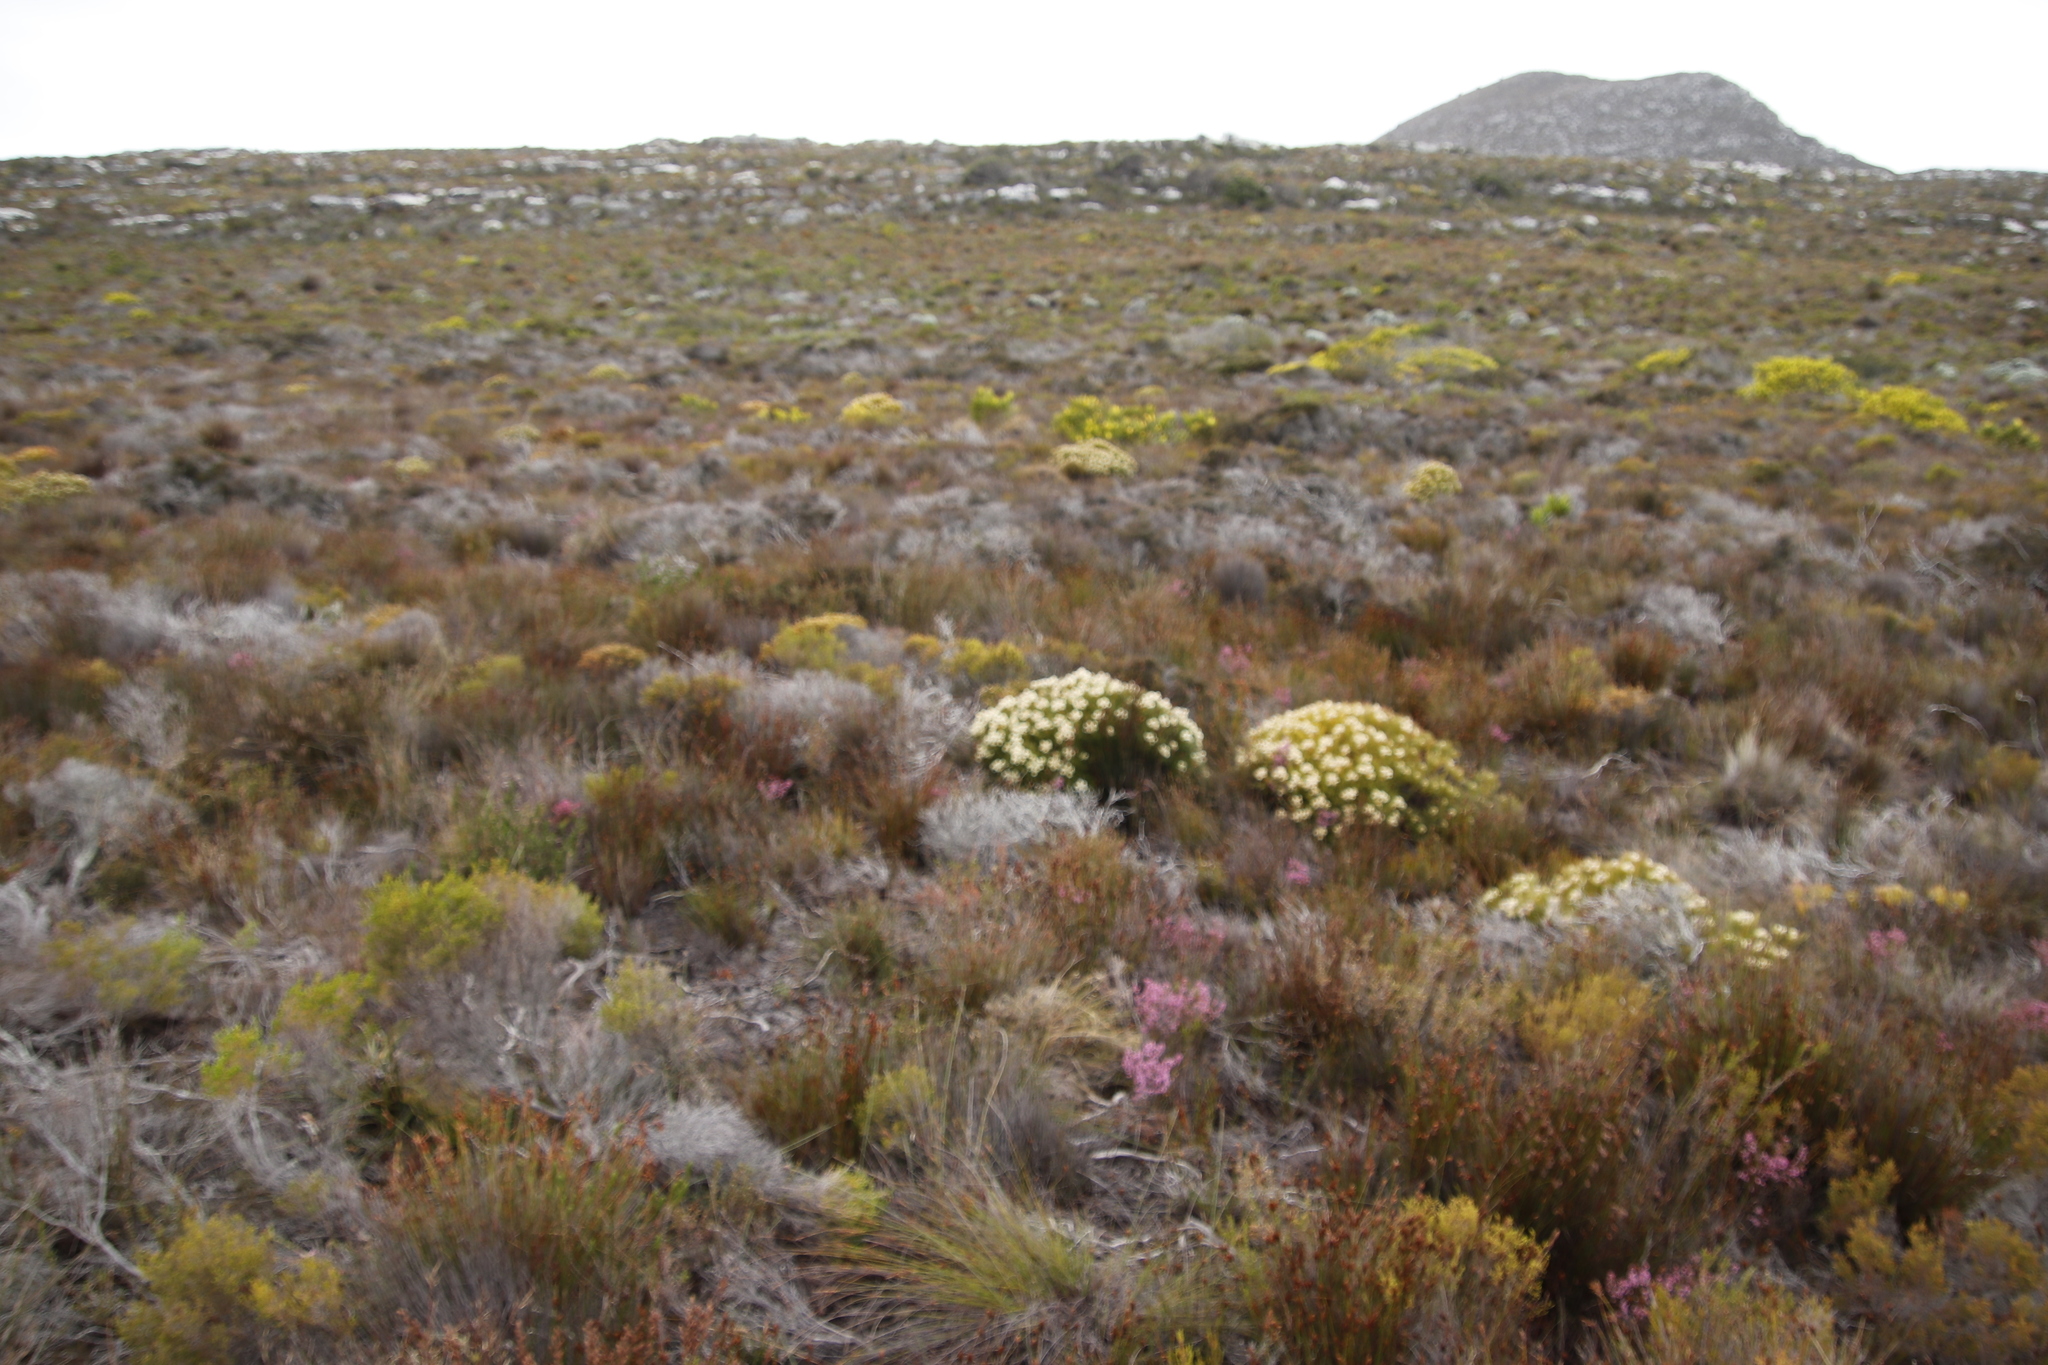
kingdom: Plantae
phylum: Tracheophyta
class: Magnoliopsida
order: Proteales
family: Proteaceae
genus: Serruria
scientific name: Serruria glomerata
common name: Cluster spiderhead
